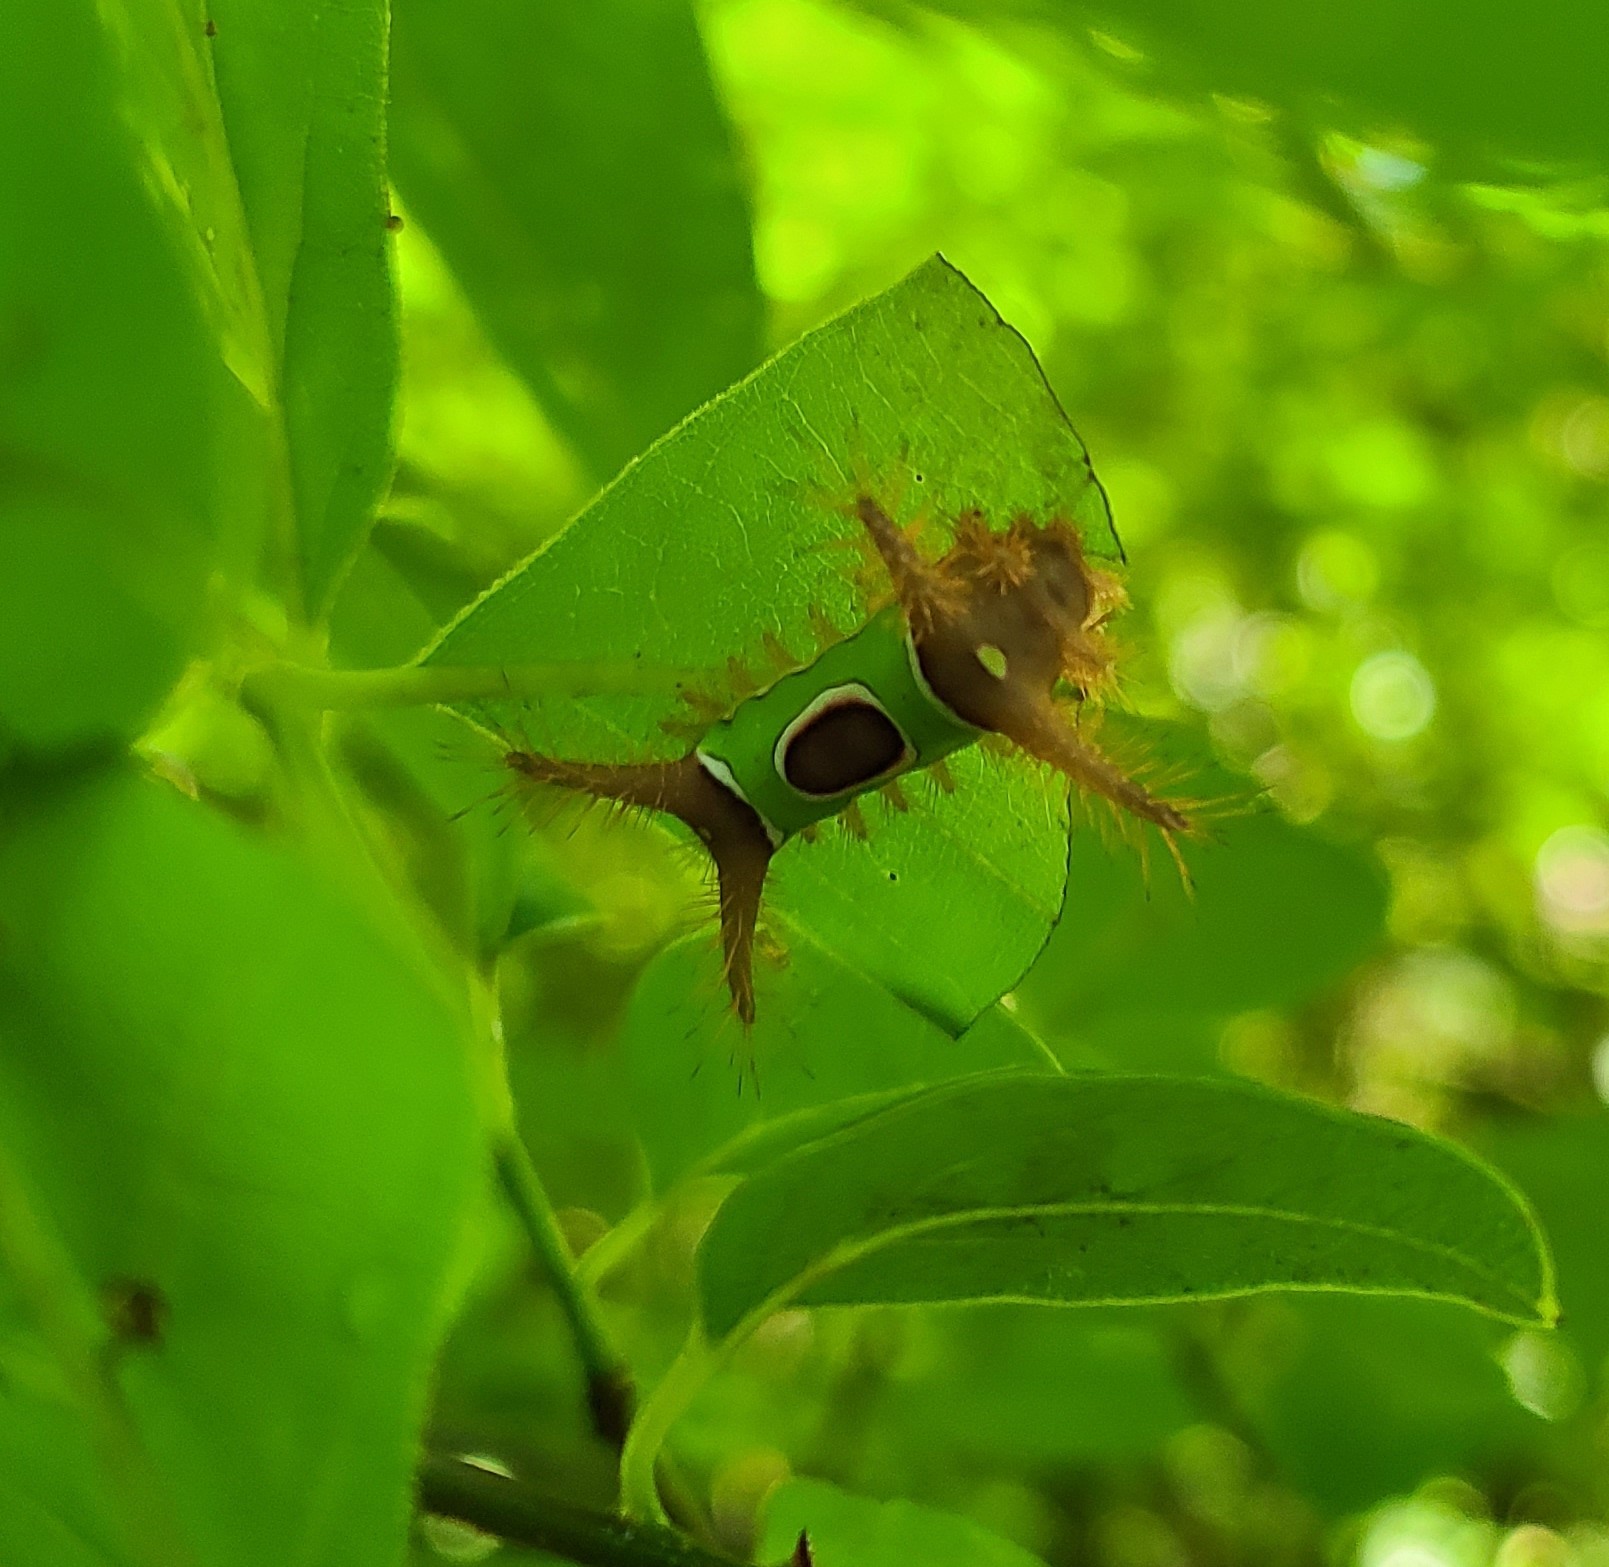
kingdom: Animalia
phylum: Arthropoda
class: Insecta
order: Lepidoptera
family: Limacodidae
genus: Acharia
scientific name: Acharia stimulea
